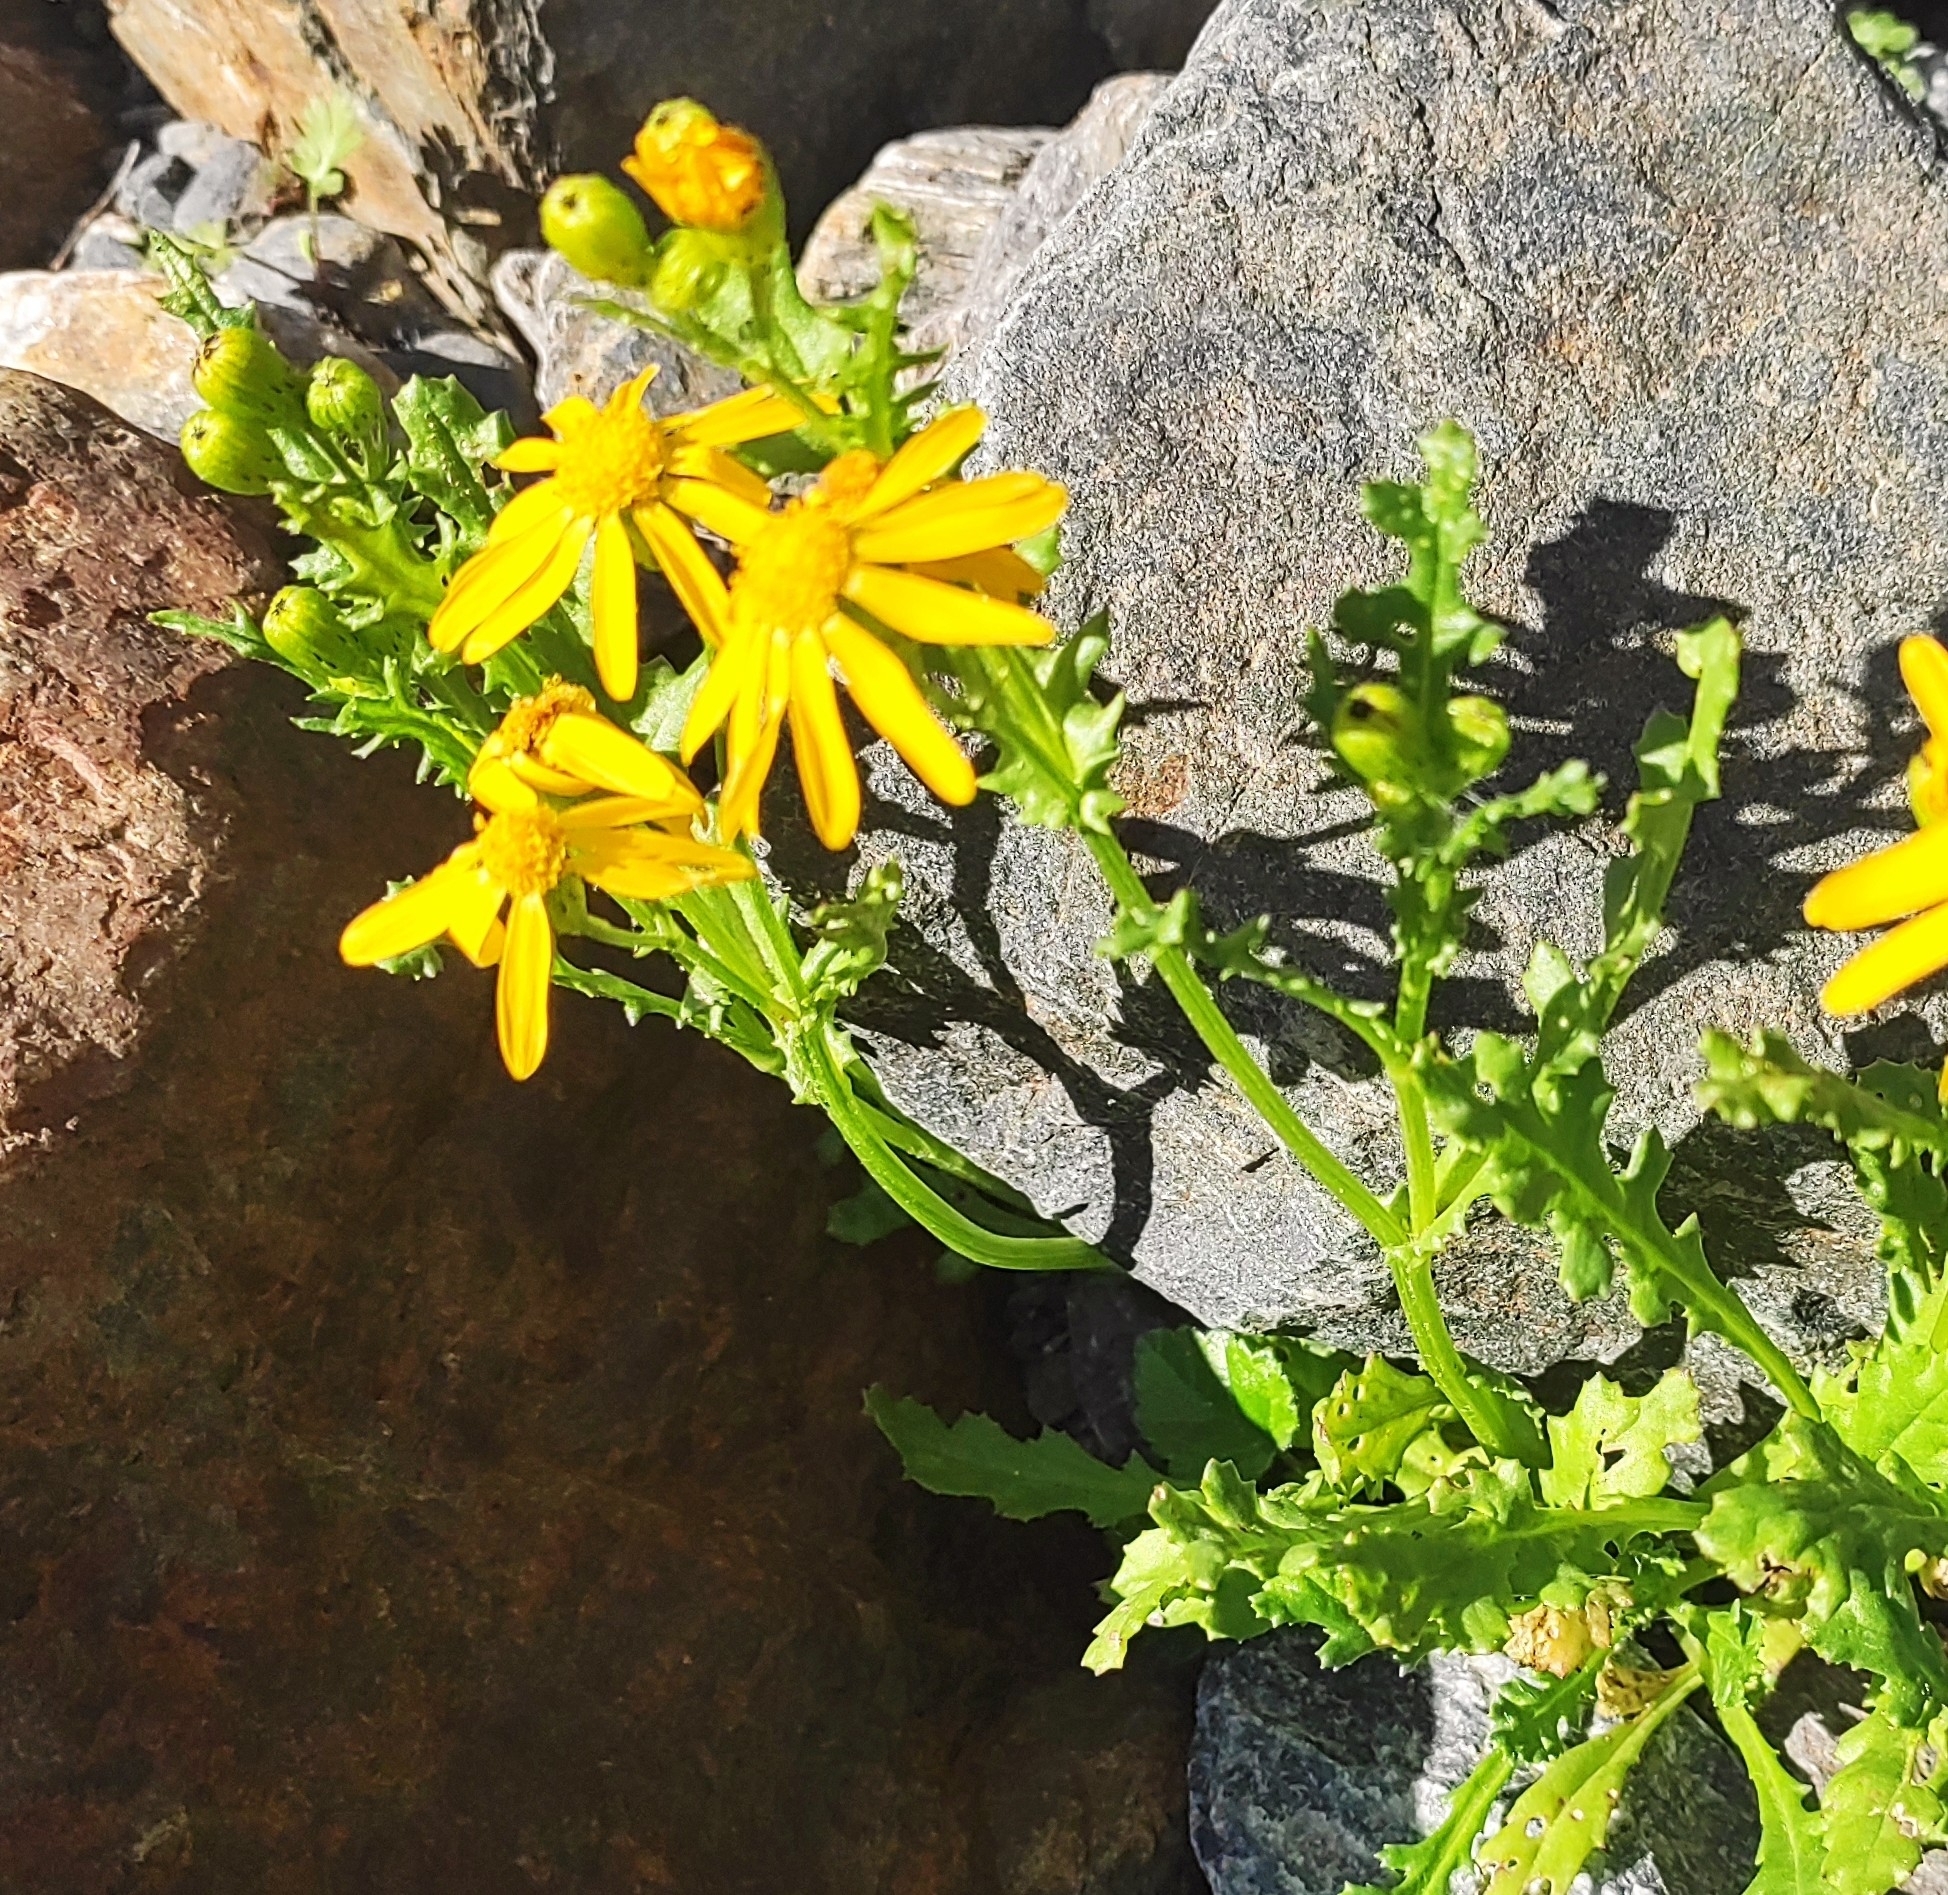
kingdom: Plantae
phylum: Tracheophyta
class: Magnoliopsida
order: Asterales
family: Asteraceae
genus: Senecio
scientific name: Senecio leucanthemifolius
